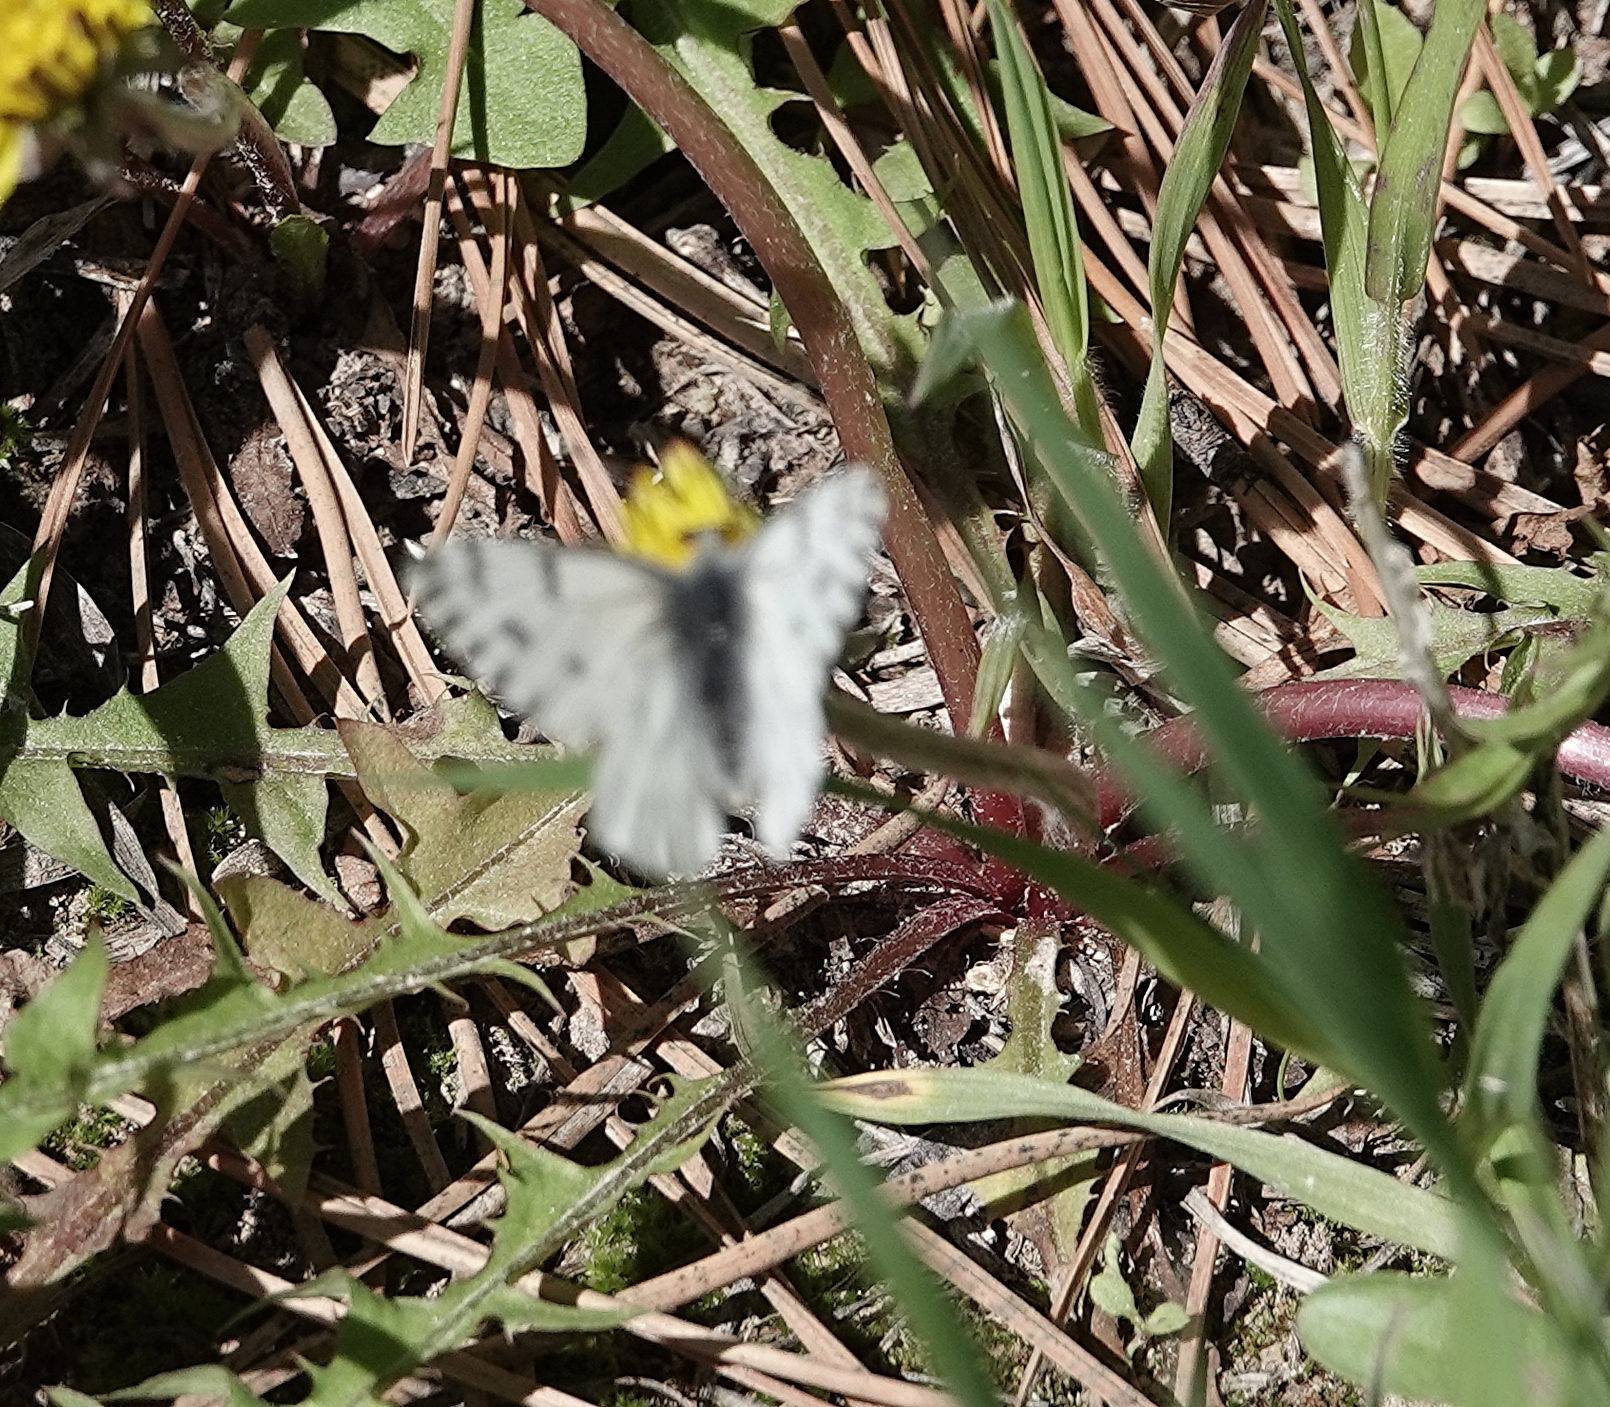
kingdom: Animalia
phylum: Arthropoda
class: Insecta
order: Lepidoptera
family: Pieridae
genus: Pontia
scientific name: Pontia sisymbrii
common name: California white
